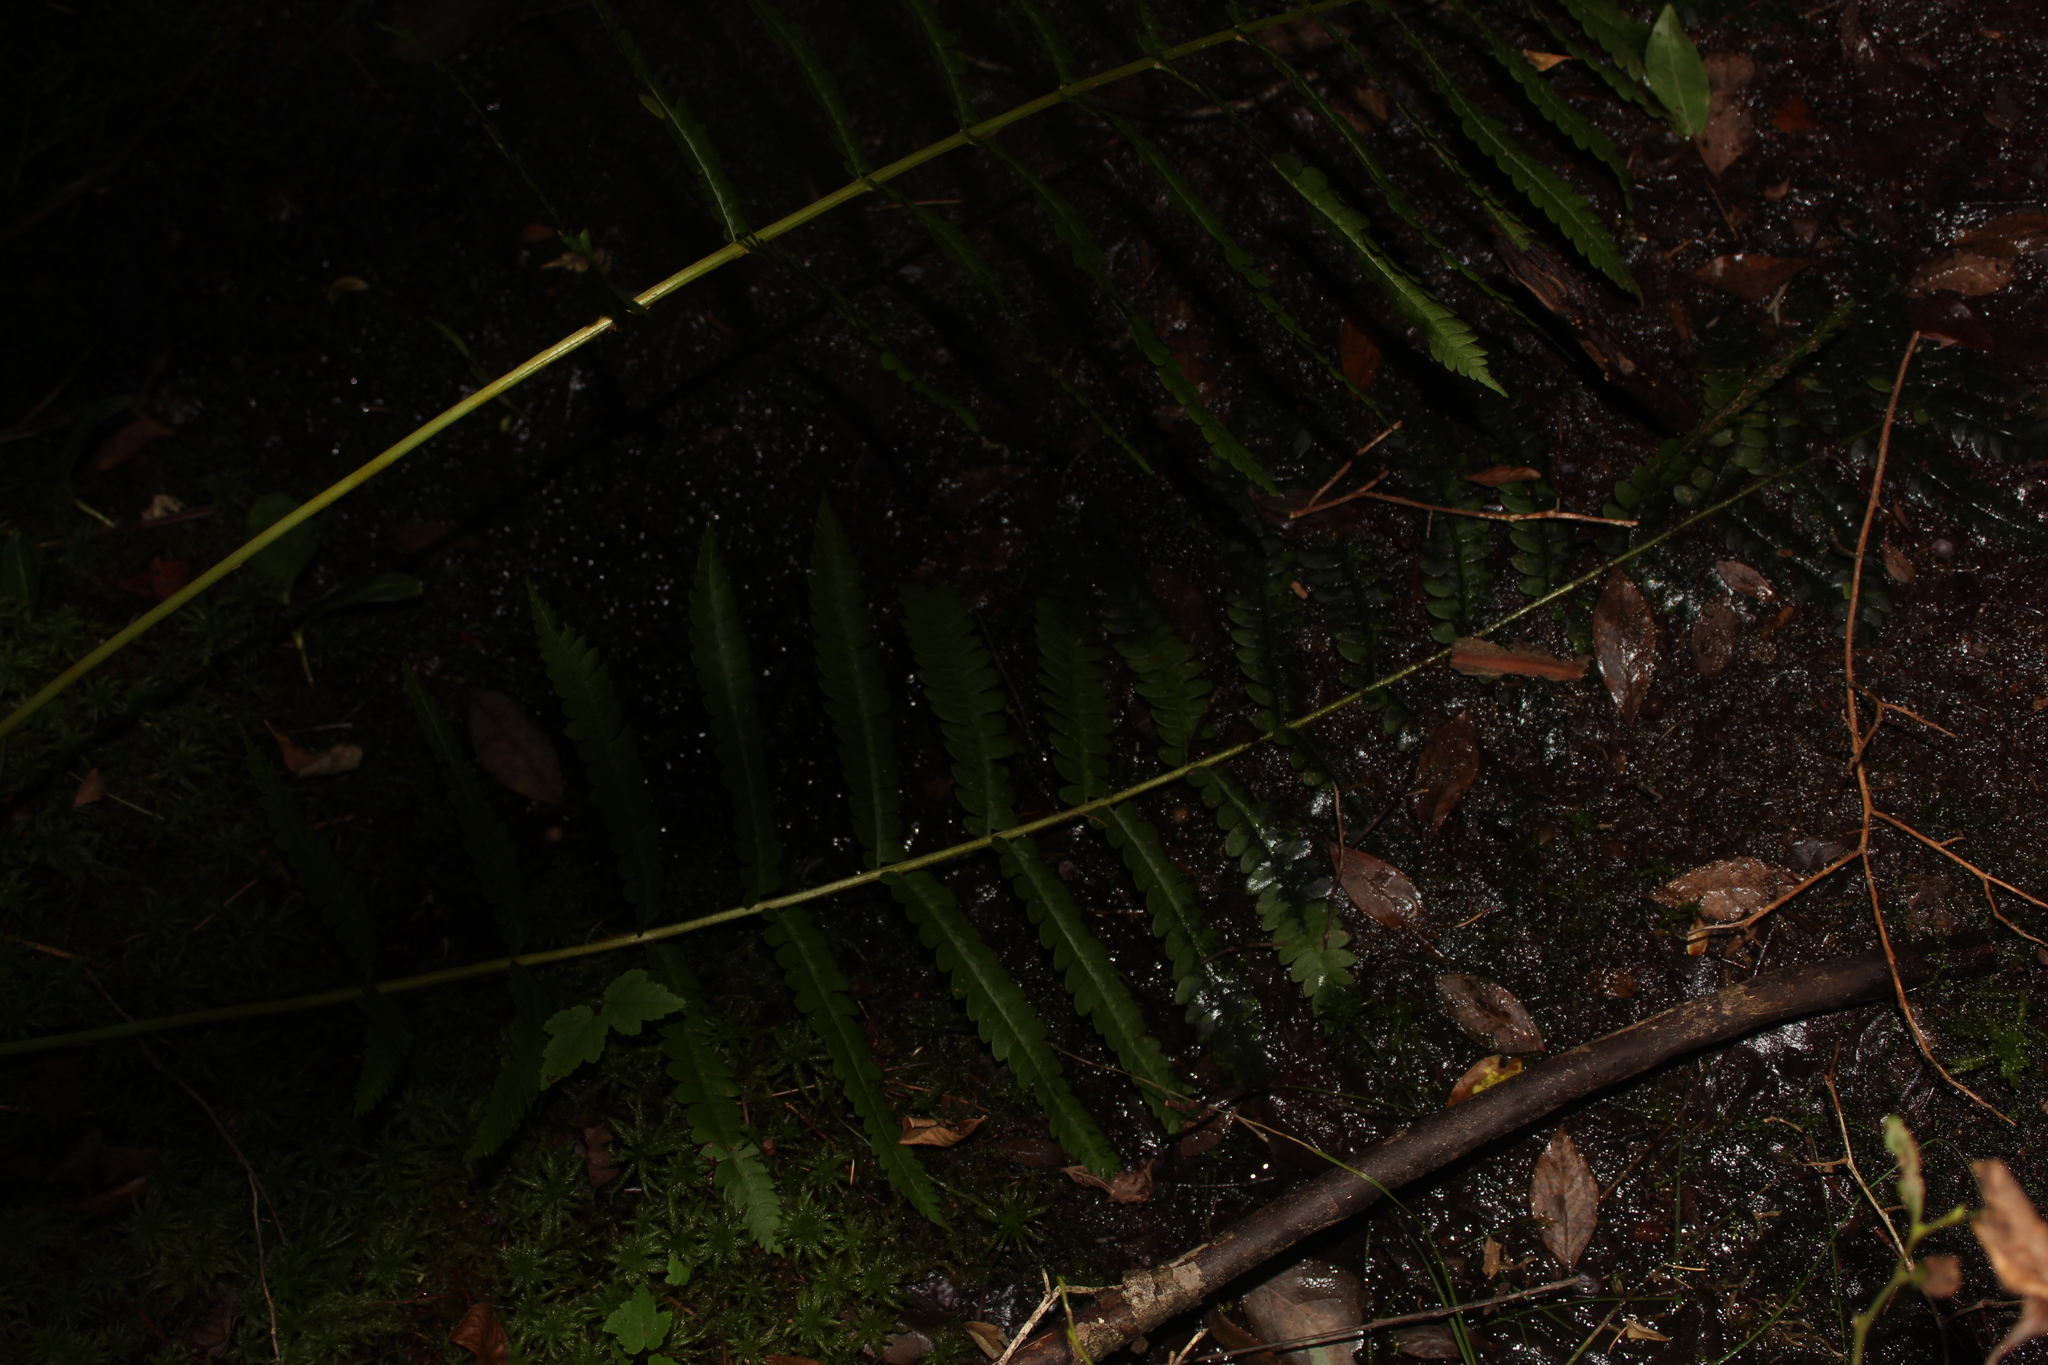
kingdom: Plantae
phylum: Tracheophyta
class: Polypodiopsida
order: Polypodiales
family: Blechnaceae
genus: Anchistea
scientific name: Anchistea virginica
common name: Virginia chain fern
